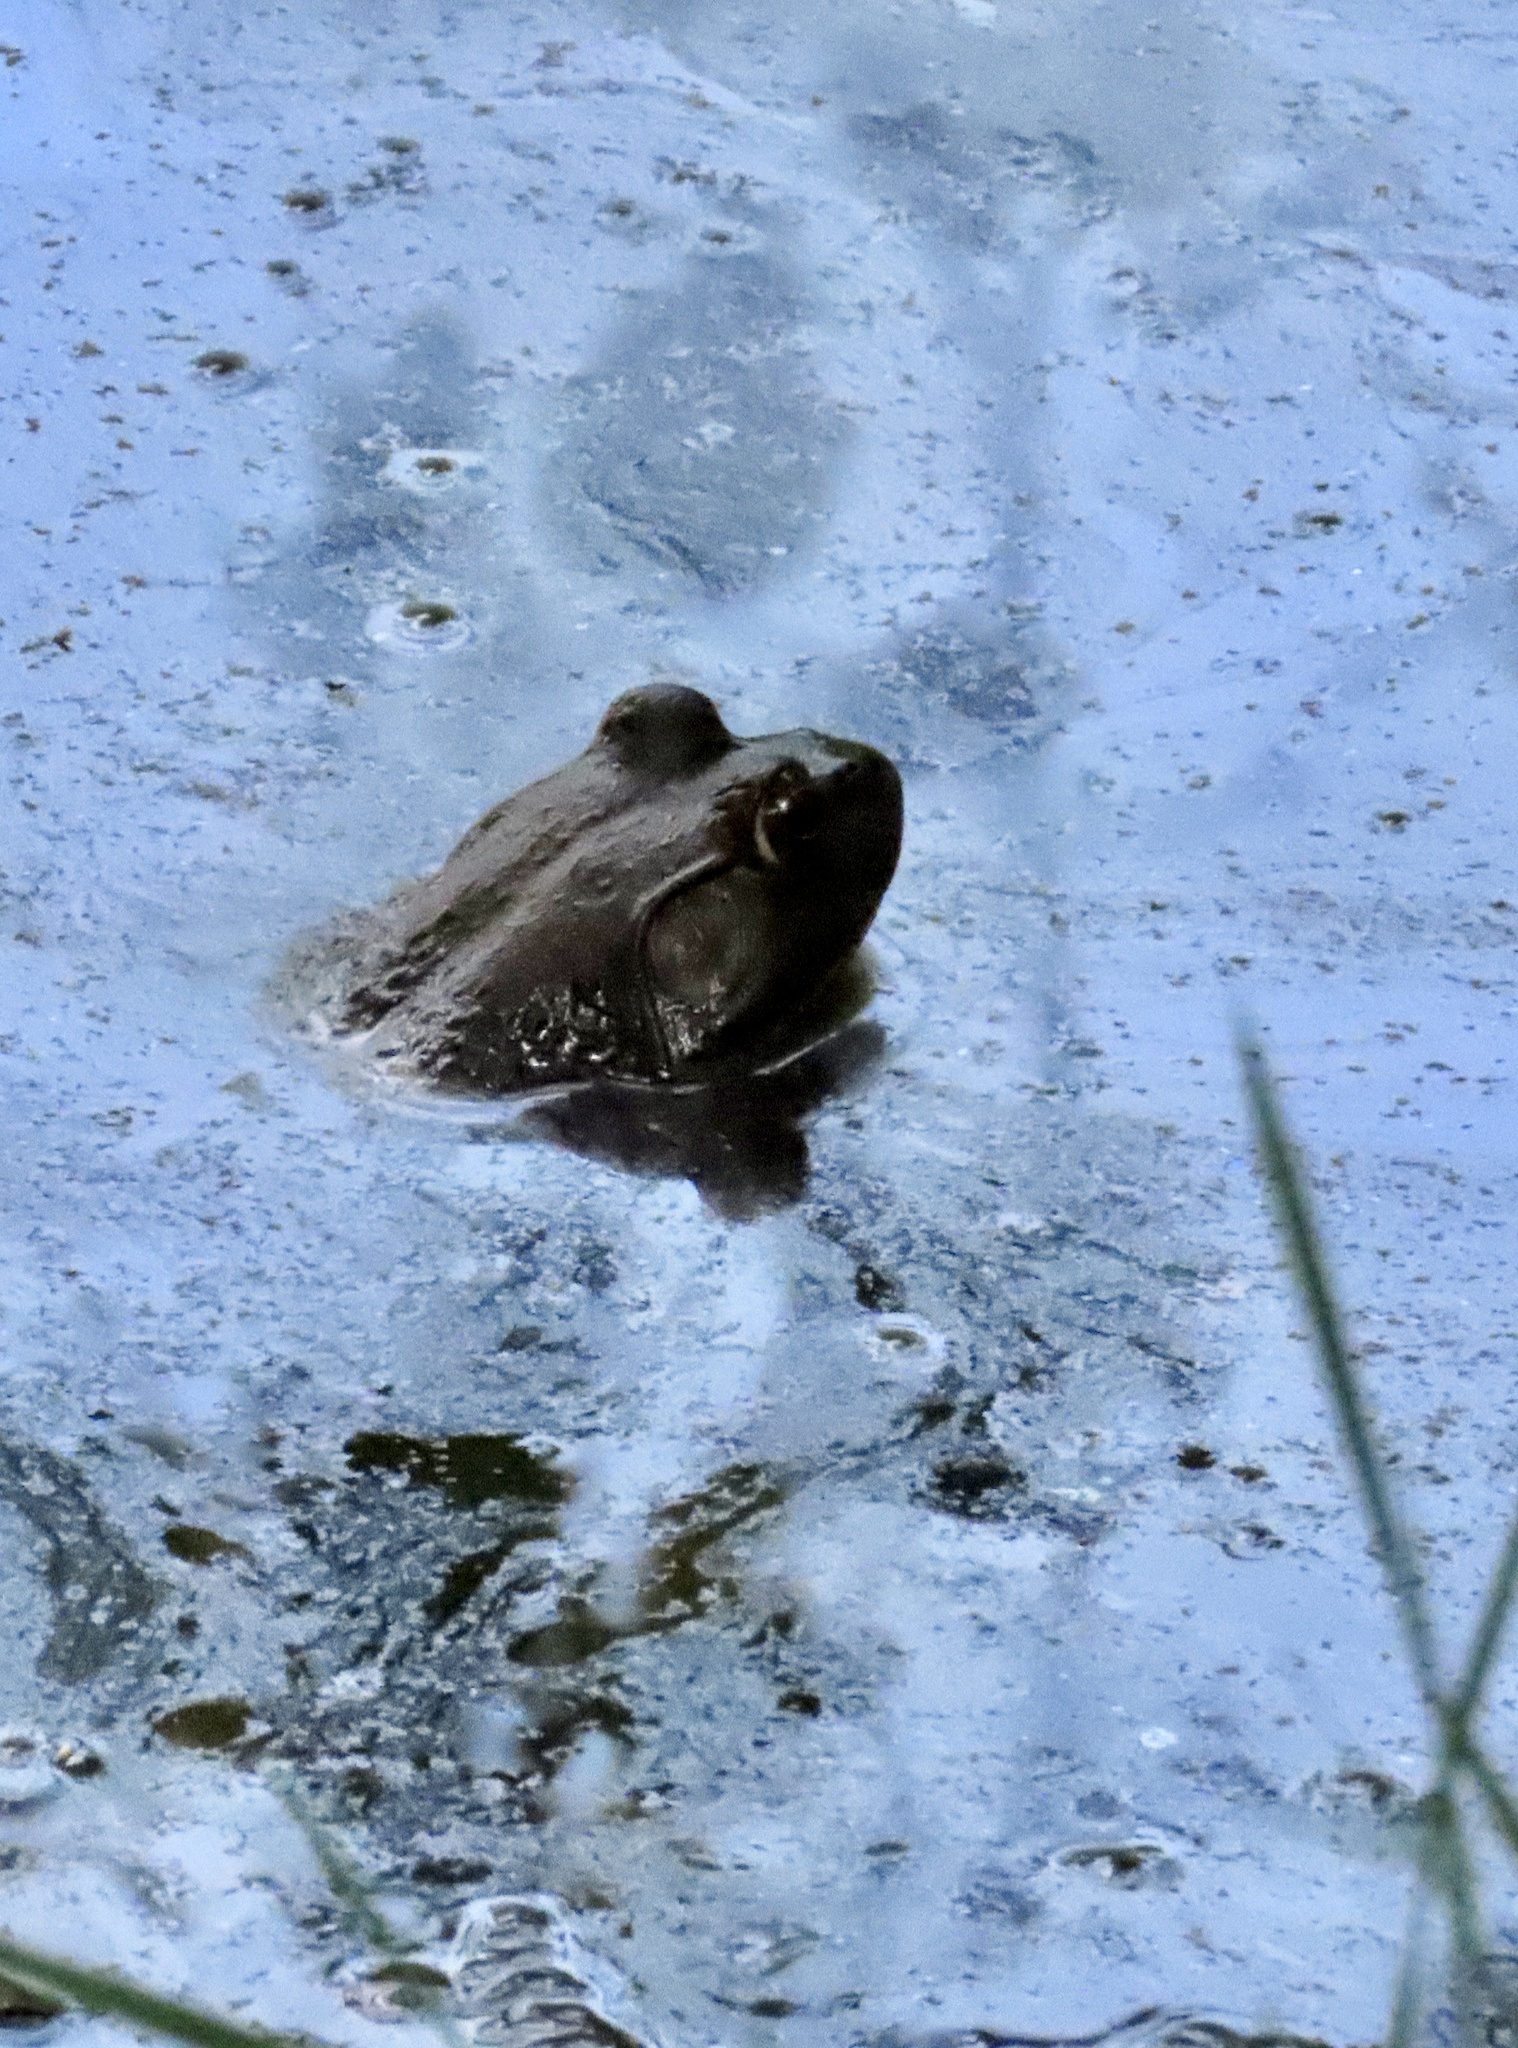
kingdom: Animalia
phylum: Chordata
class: Amphibia
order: Anura
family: Ranidae
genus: Lithobates
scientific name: Lithobates catesbeianus
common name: American bullfrog
